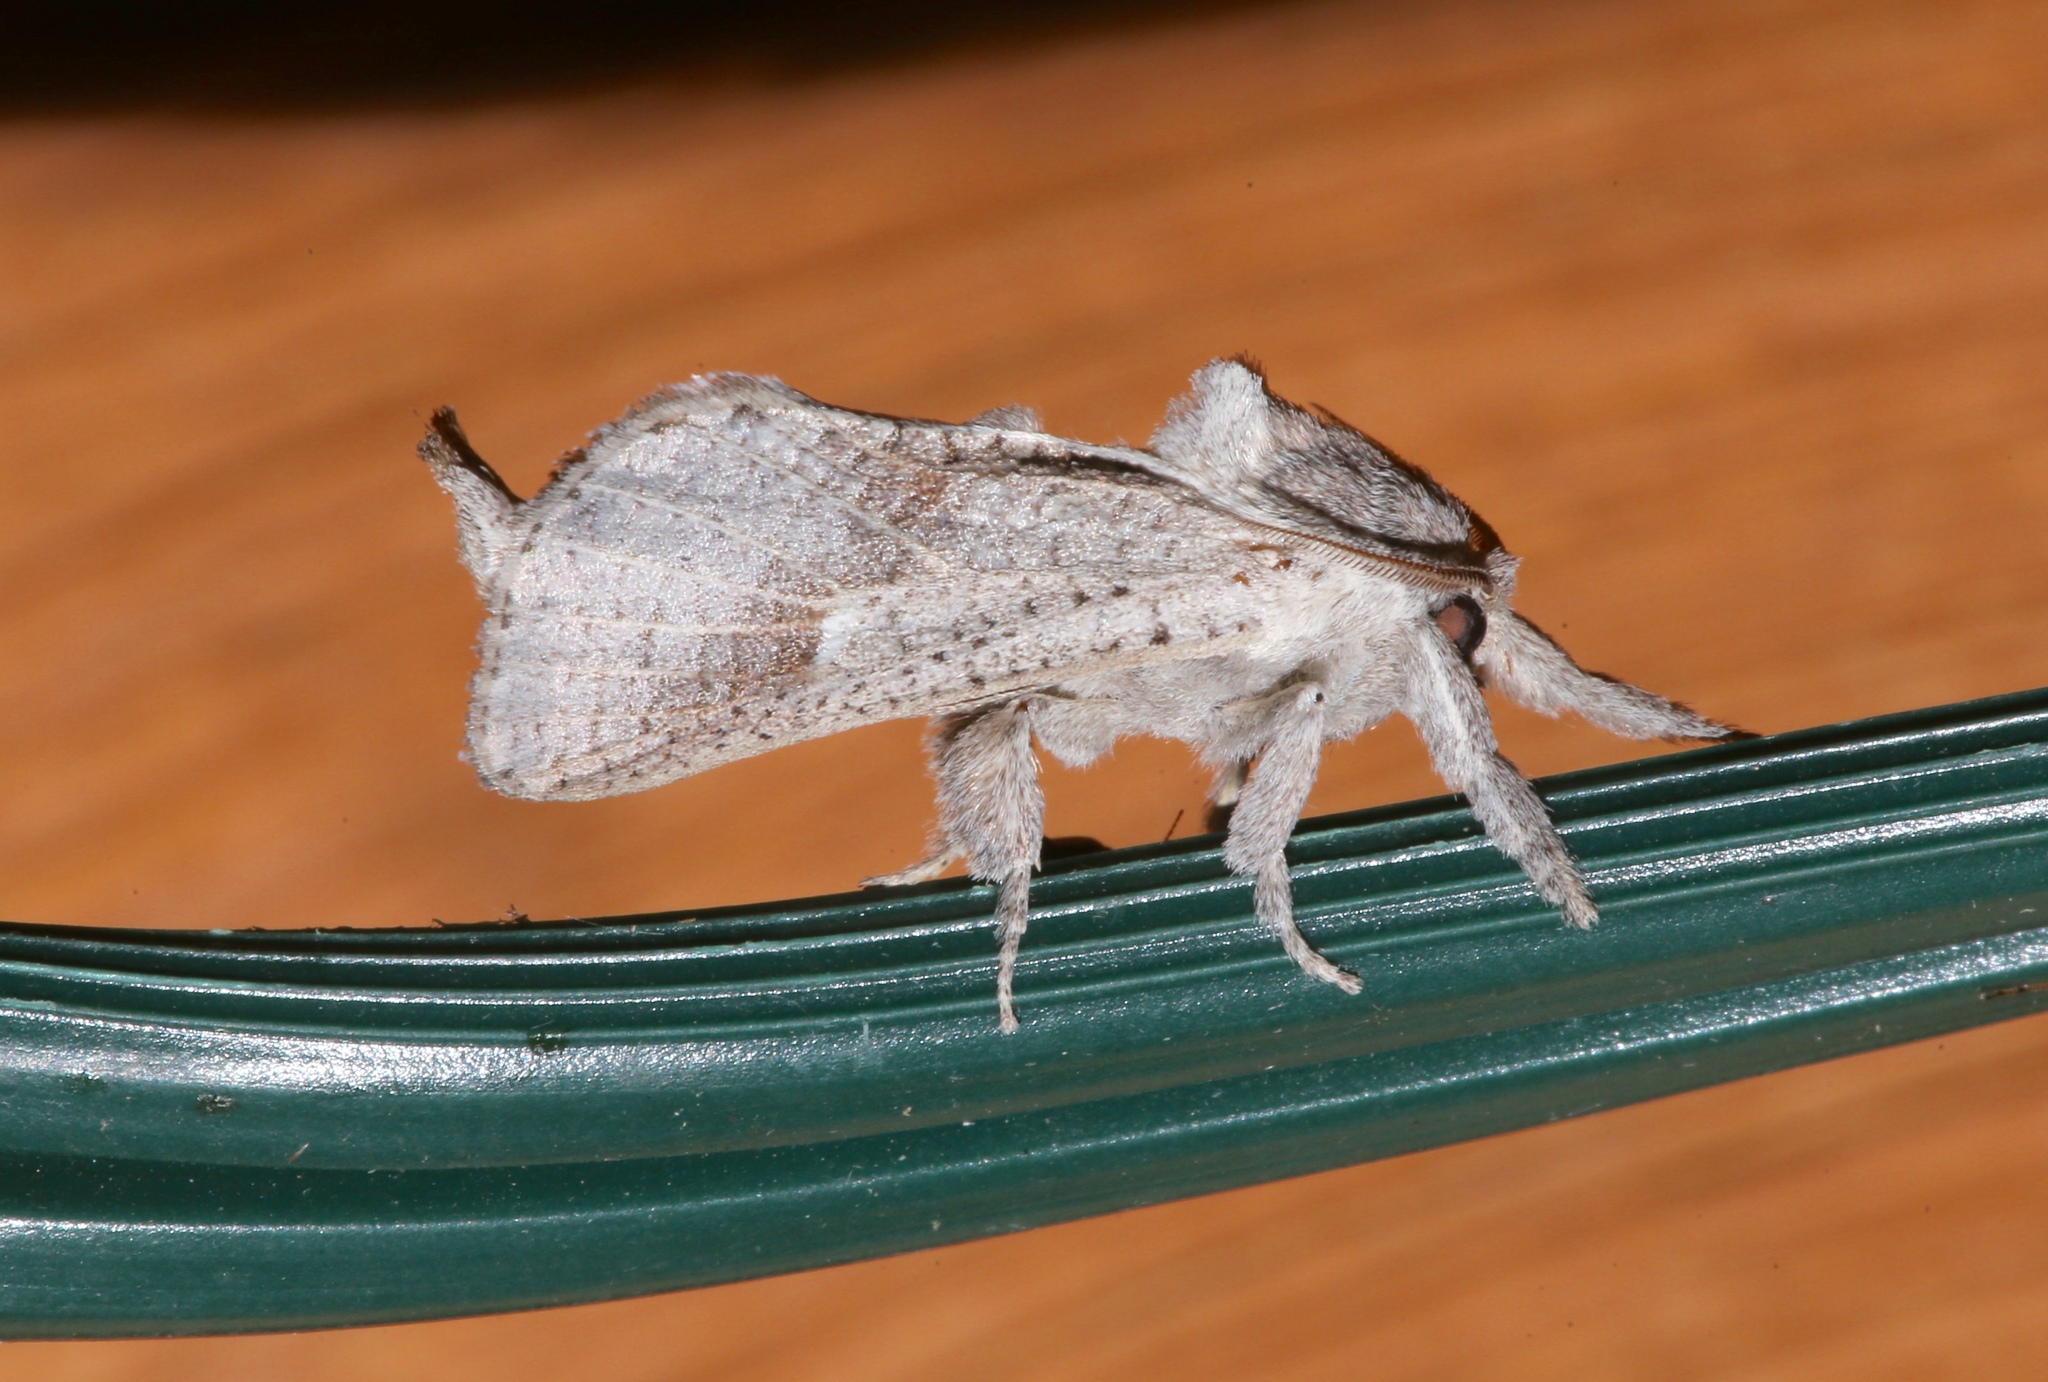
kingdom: Animalia
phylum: Arthropoda
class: Insecta
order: Lepidoptera
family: Cossidae
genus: Givira
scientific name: Givira anna
